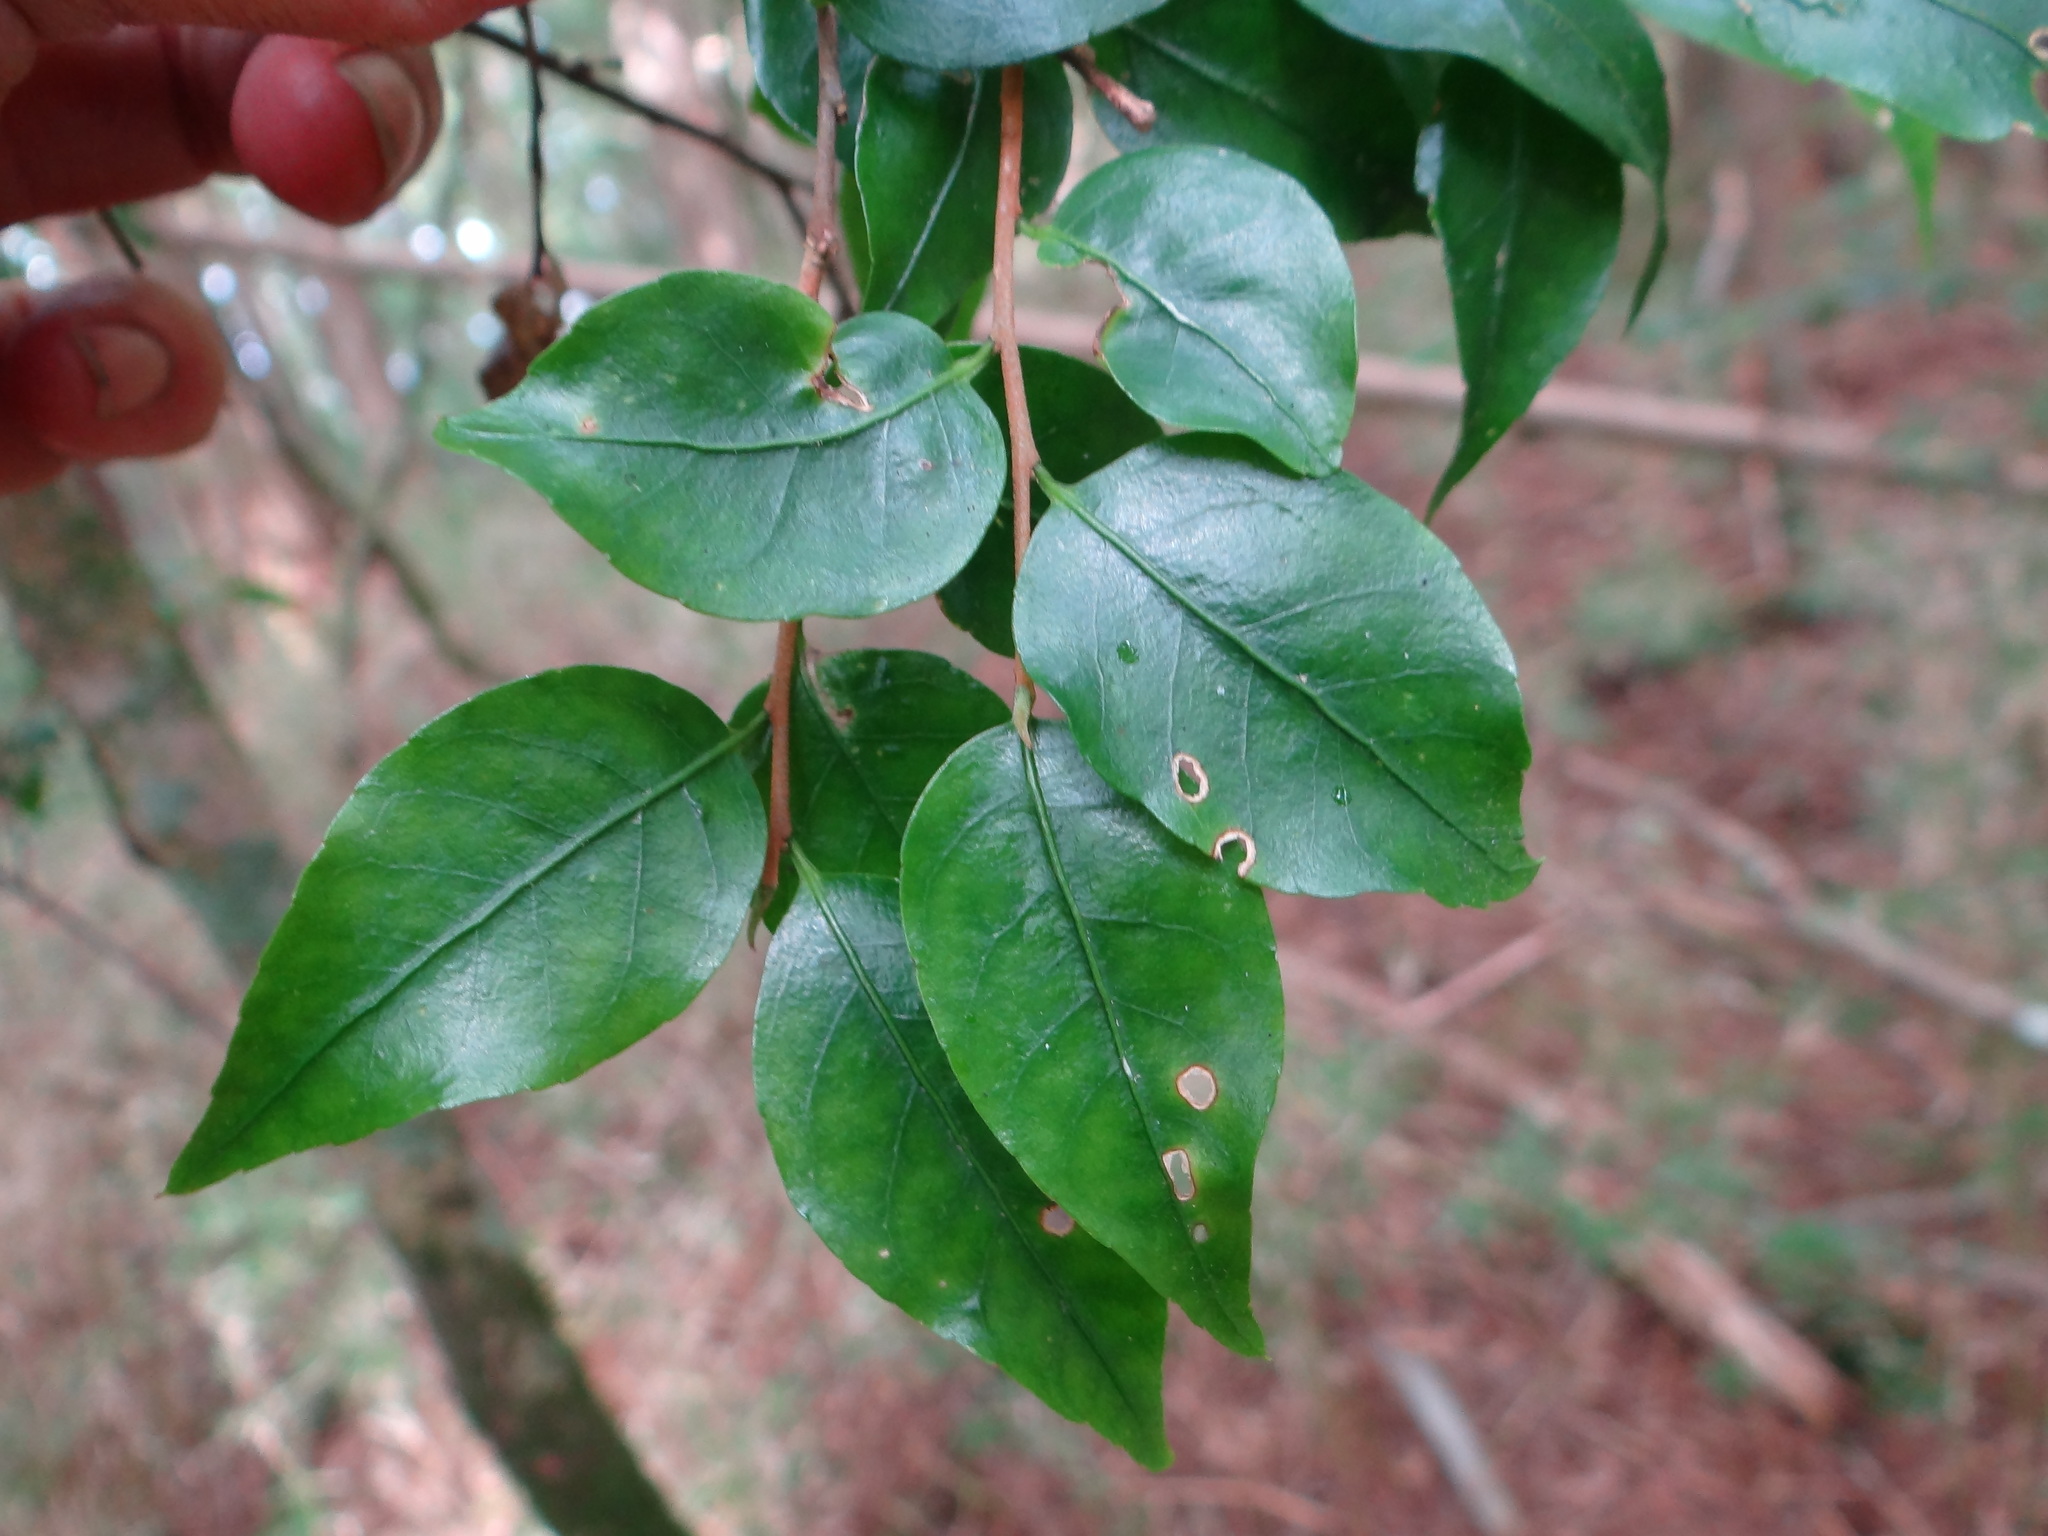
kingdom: Plantae
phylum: Tracheophyta
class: Magnoliopsida
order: Ericales
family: Symplocaceae
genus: Symplocos
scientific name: Symplocos anomala
